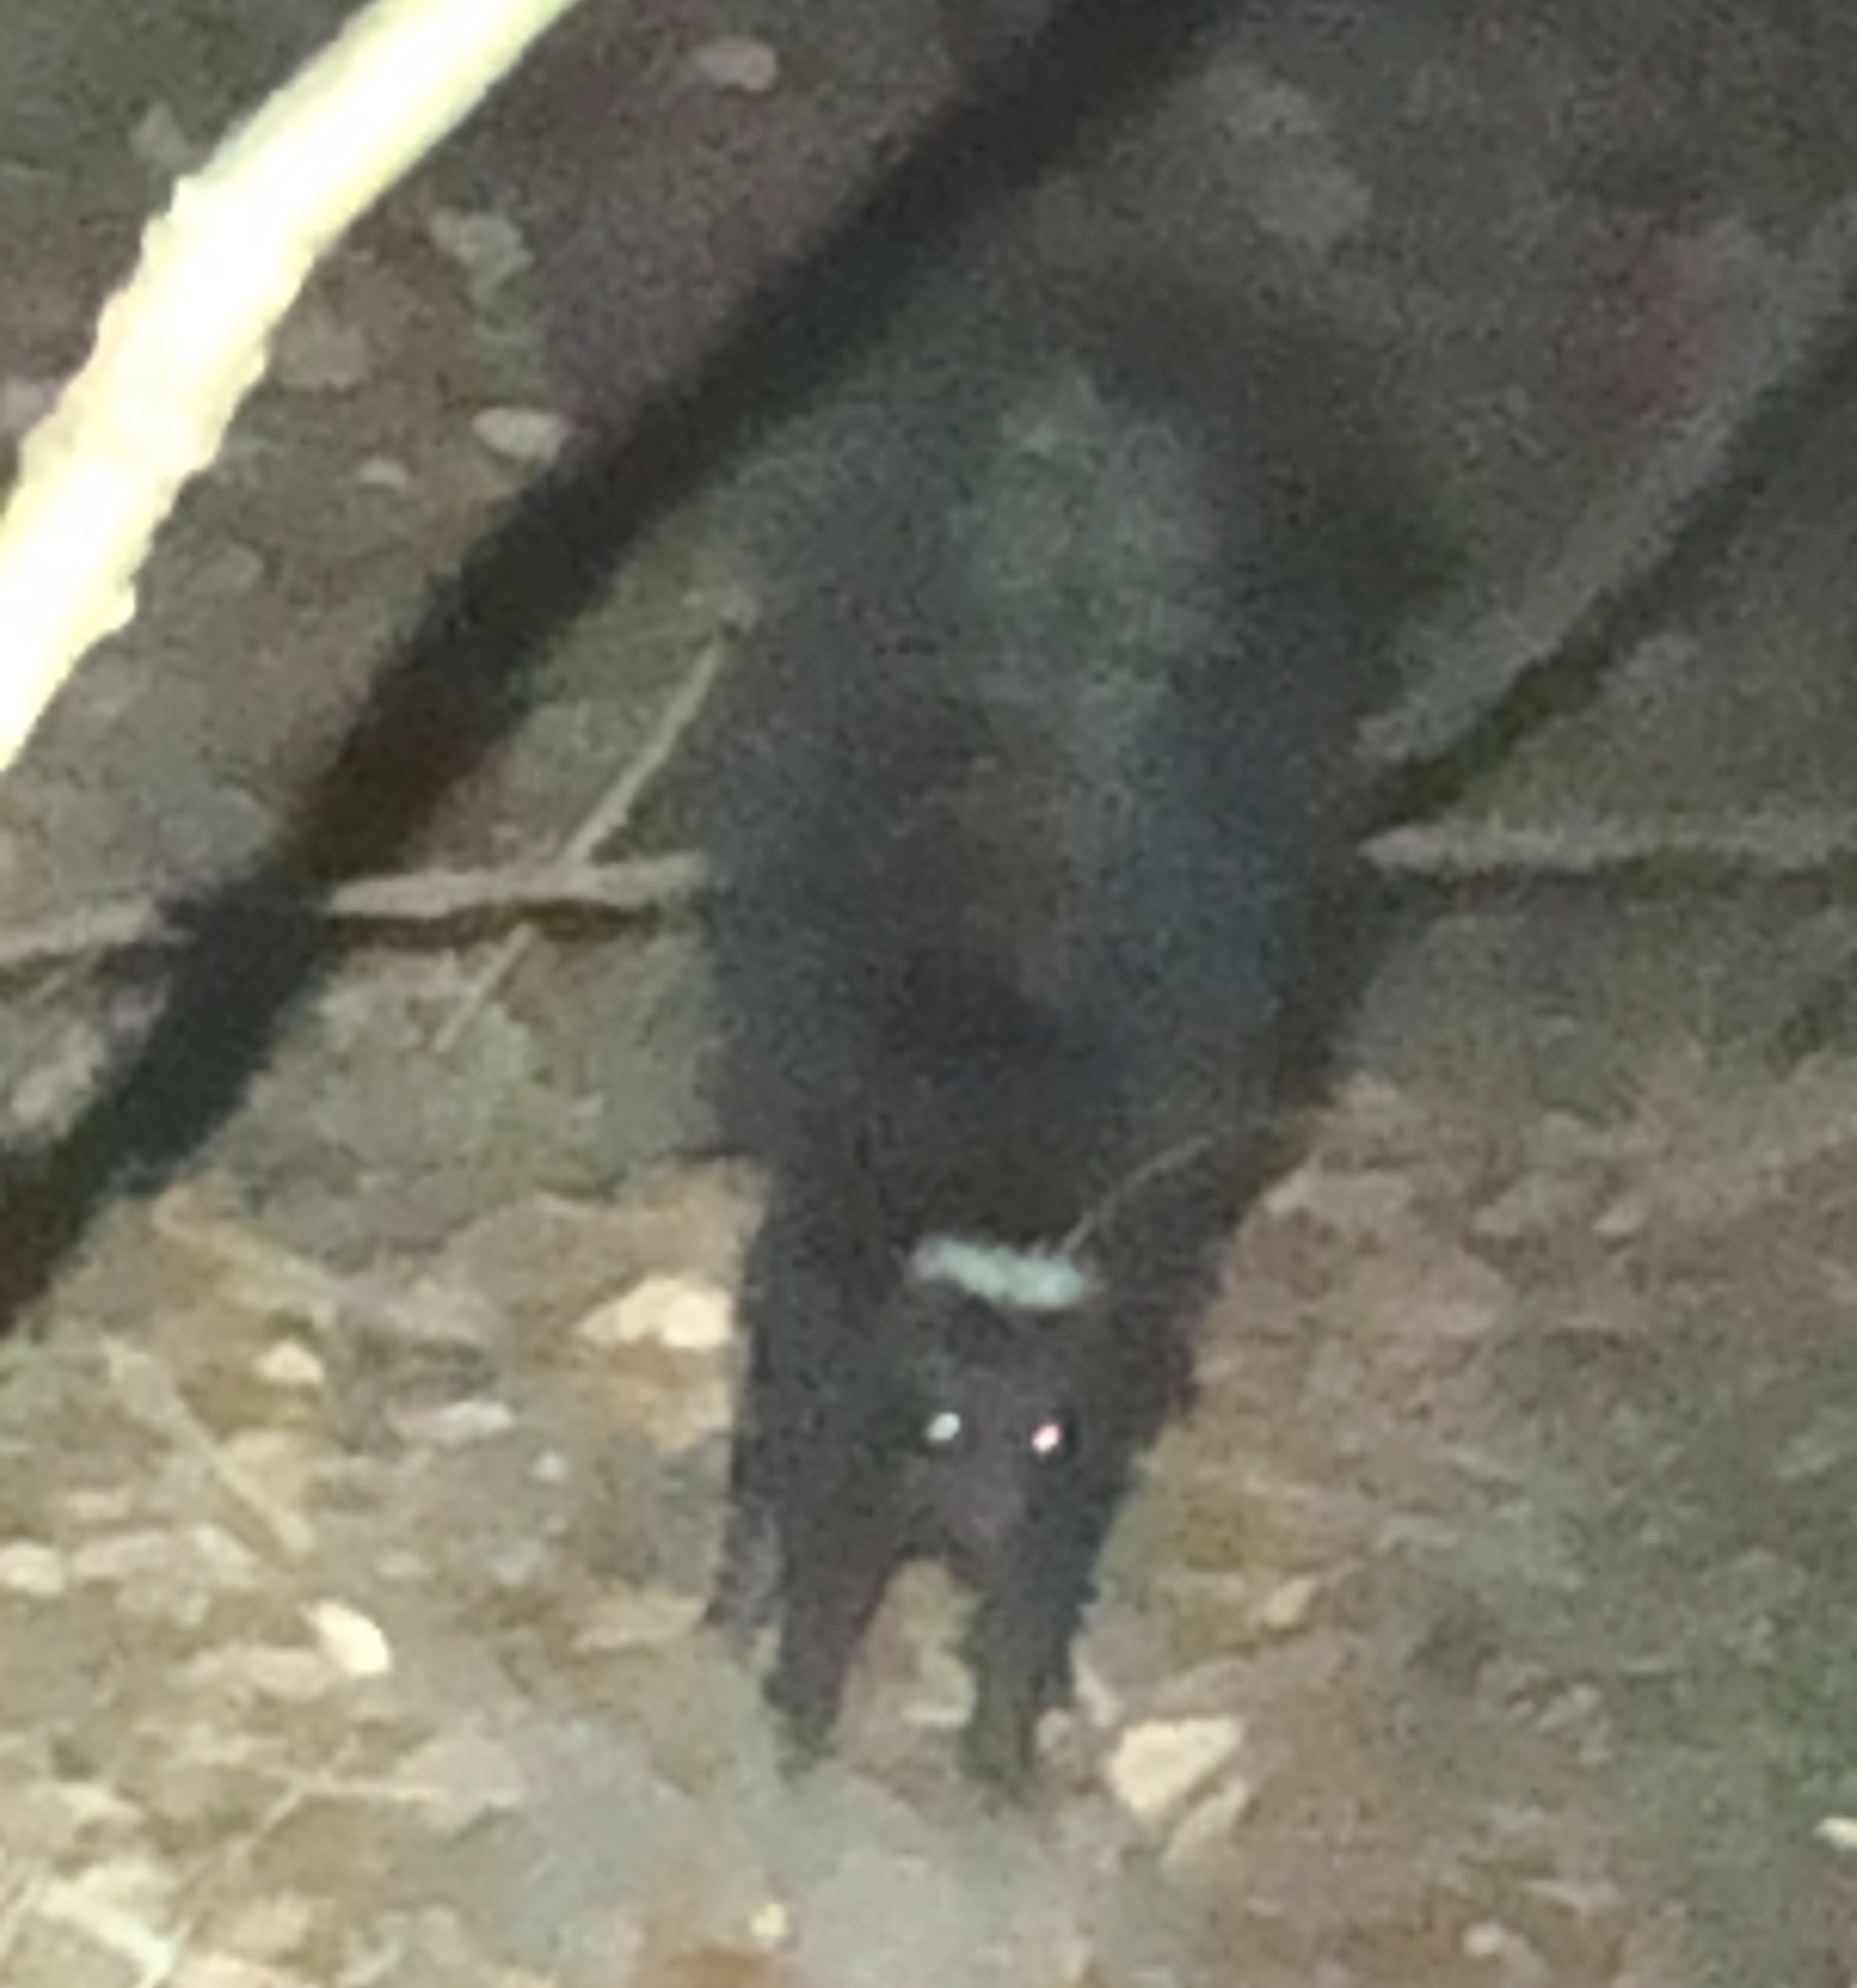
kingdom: Animalia
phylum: Chordata
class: Mammalia
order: Carnivora
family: Mephitidae
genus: Mephitis
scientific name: Mephitis mephitis
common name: Striped skunk
